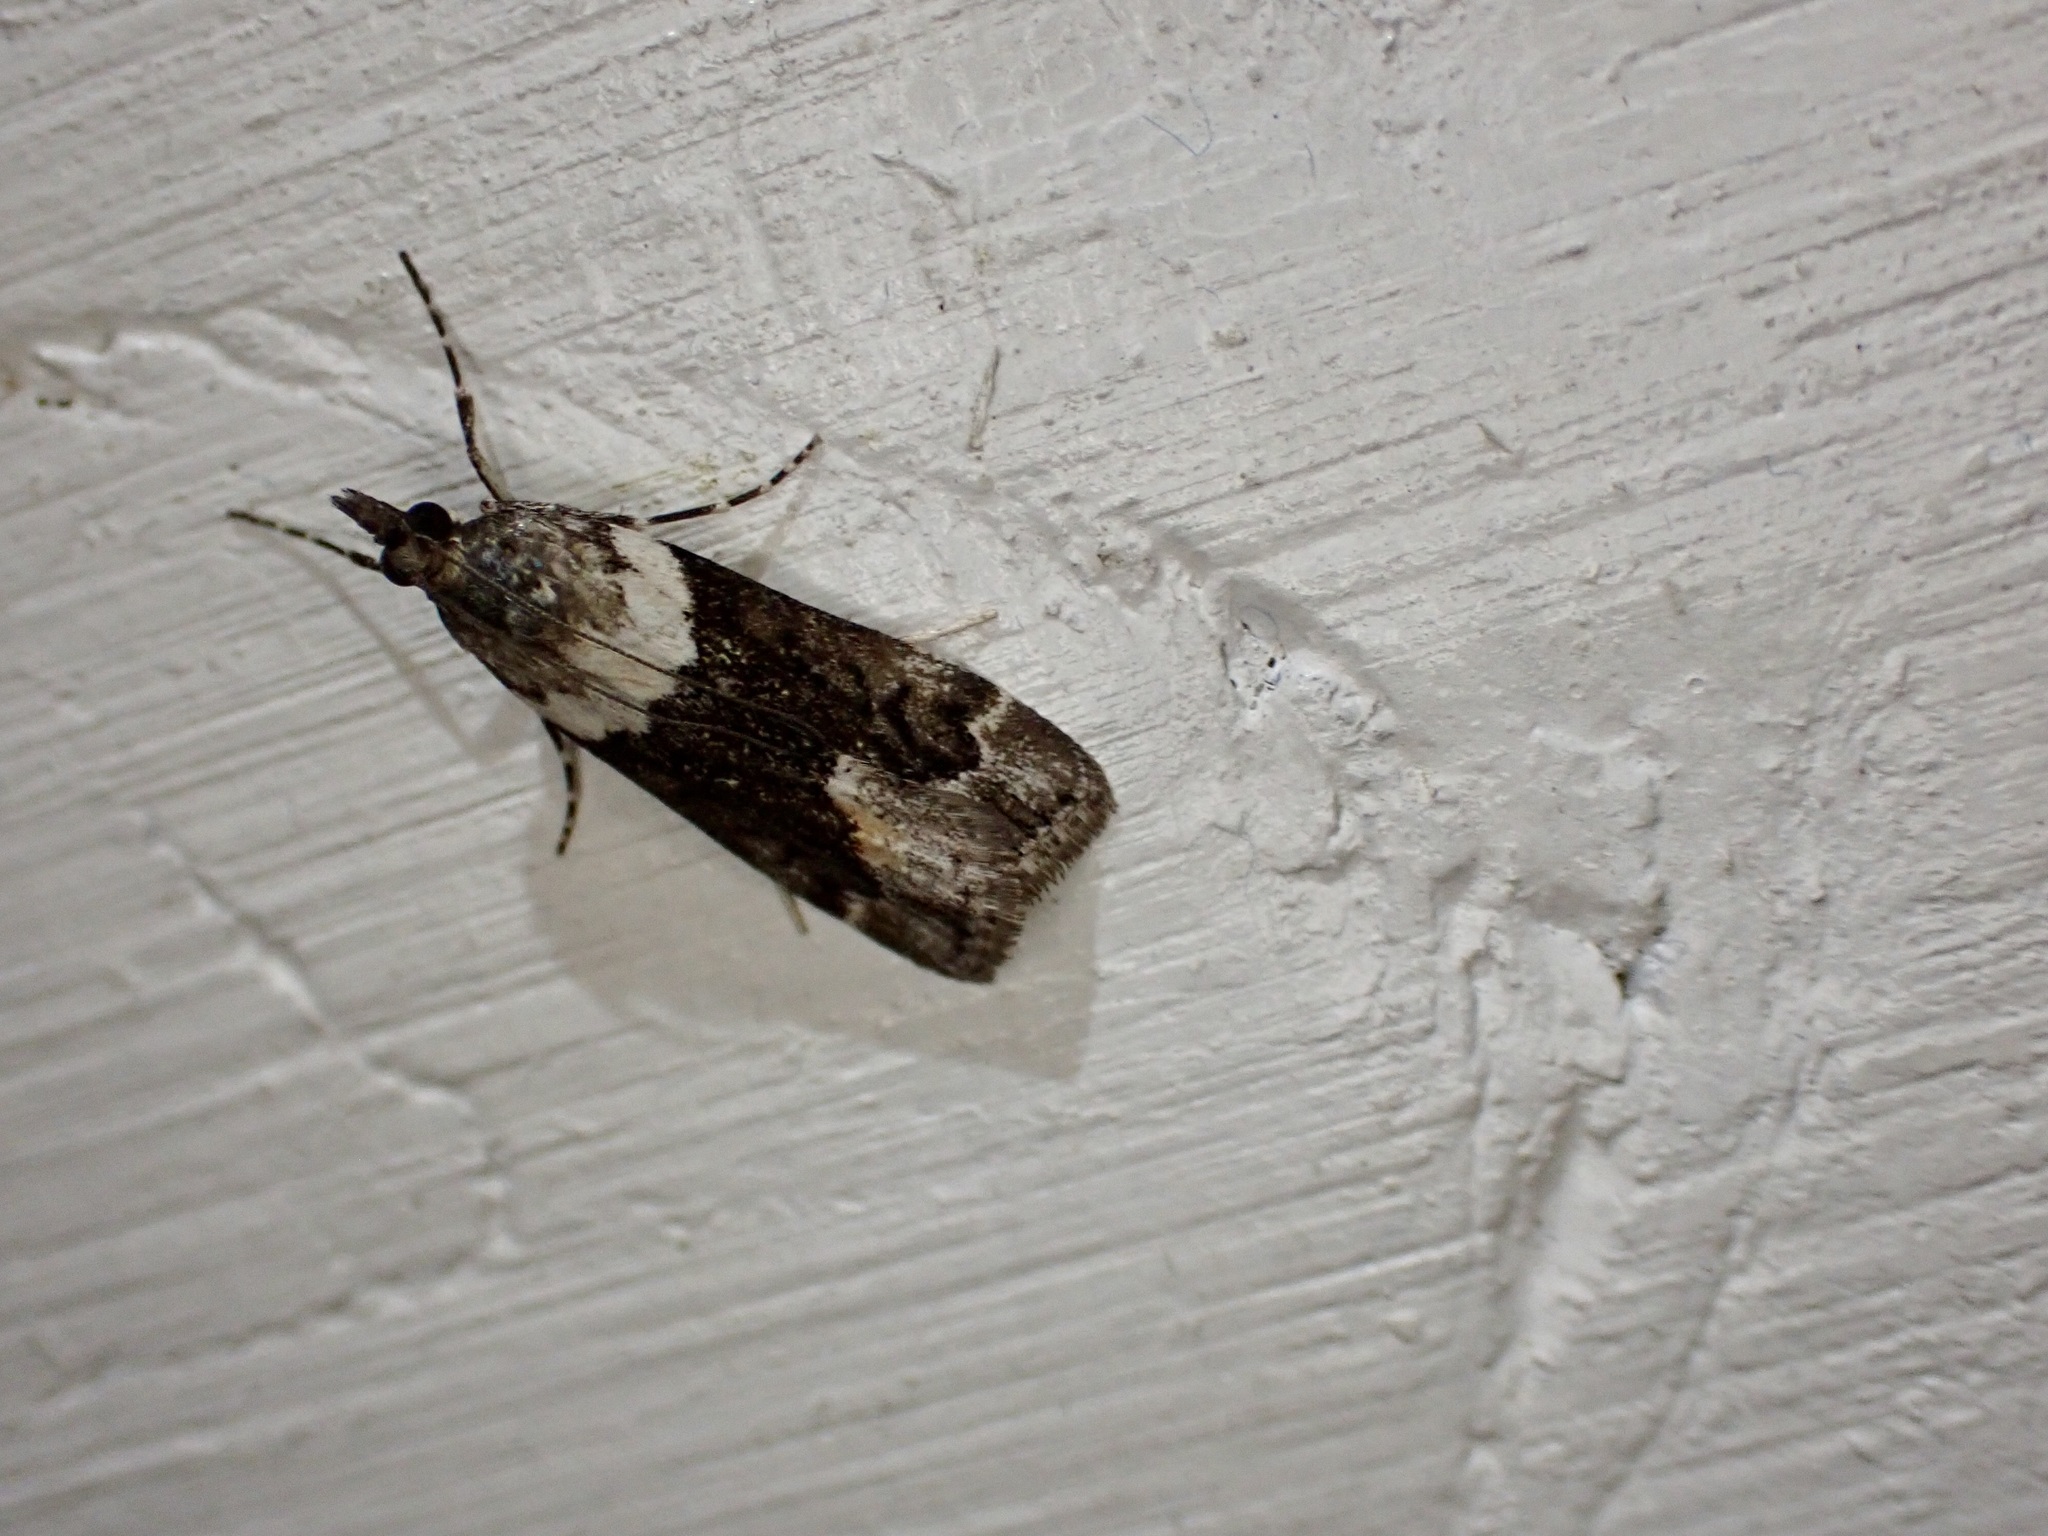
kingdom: Animalia
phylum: Arthropoda
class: Insecta
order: Lepidoptera
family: Crambidae
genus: Eudonia
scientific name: Eudonia submarginalis
